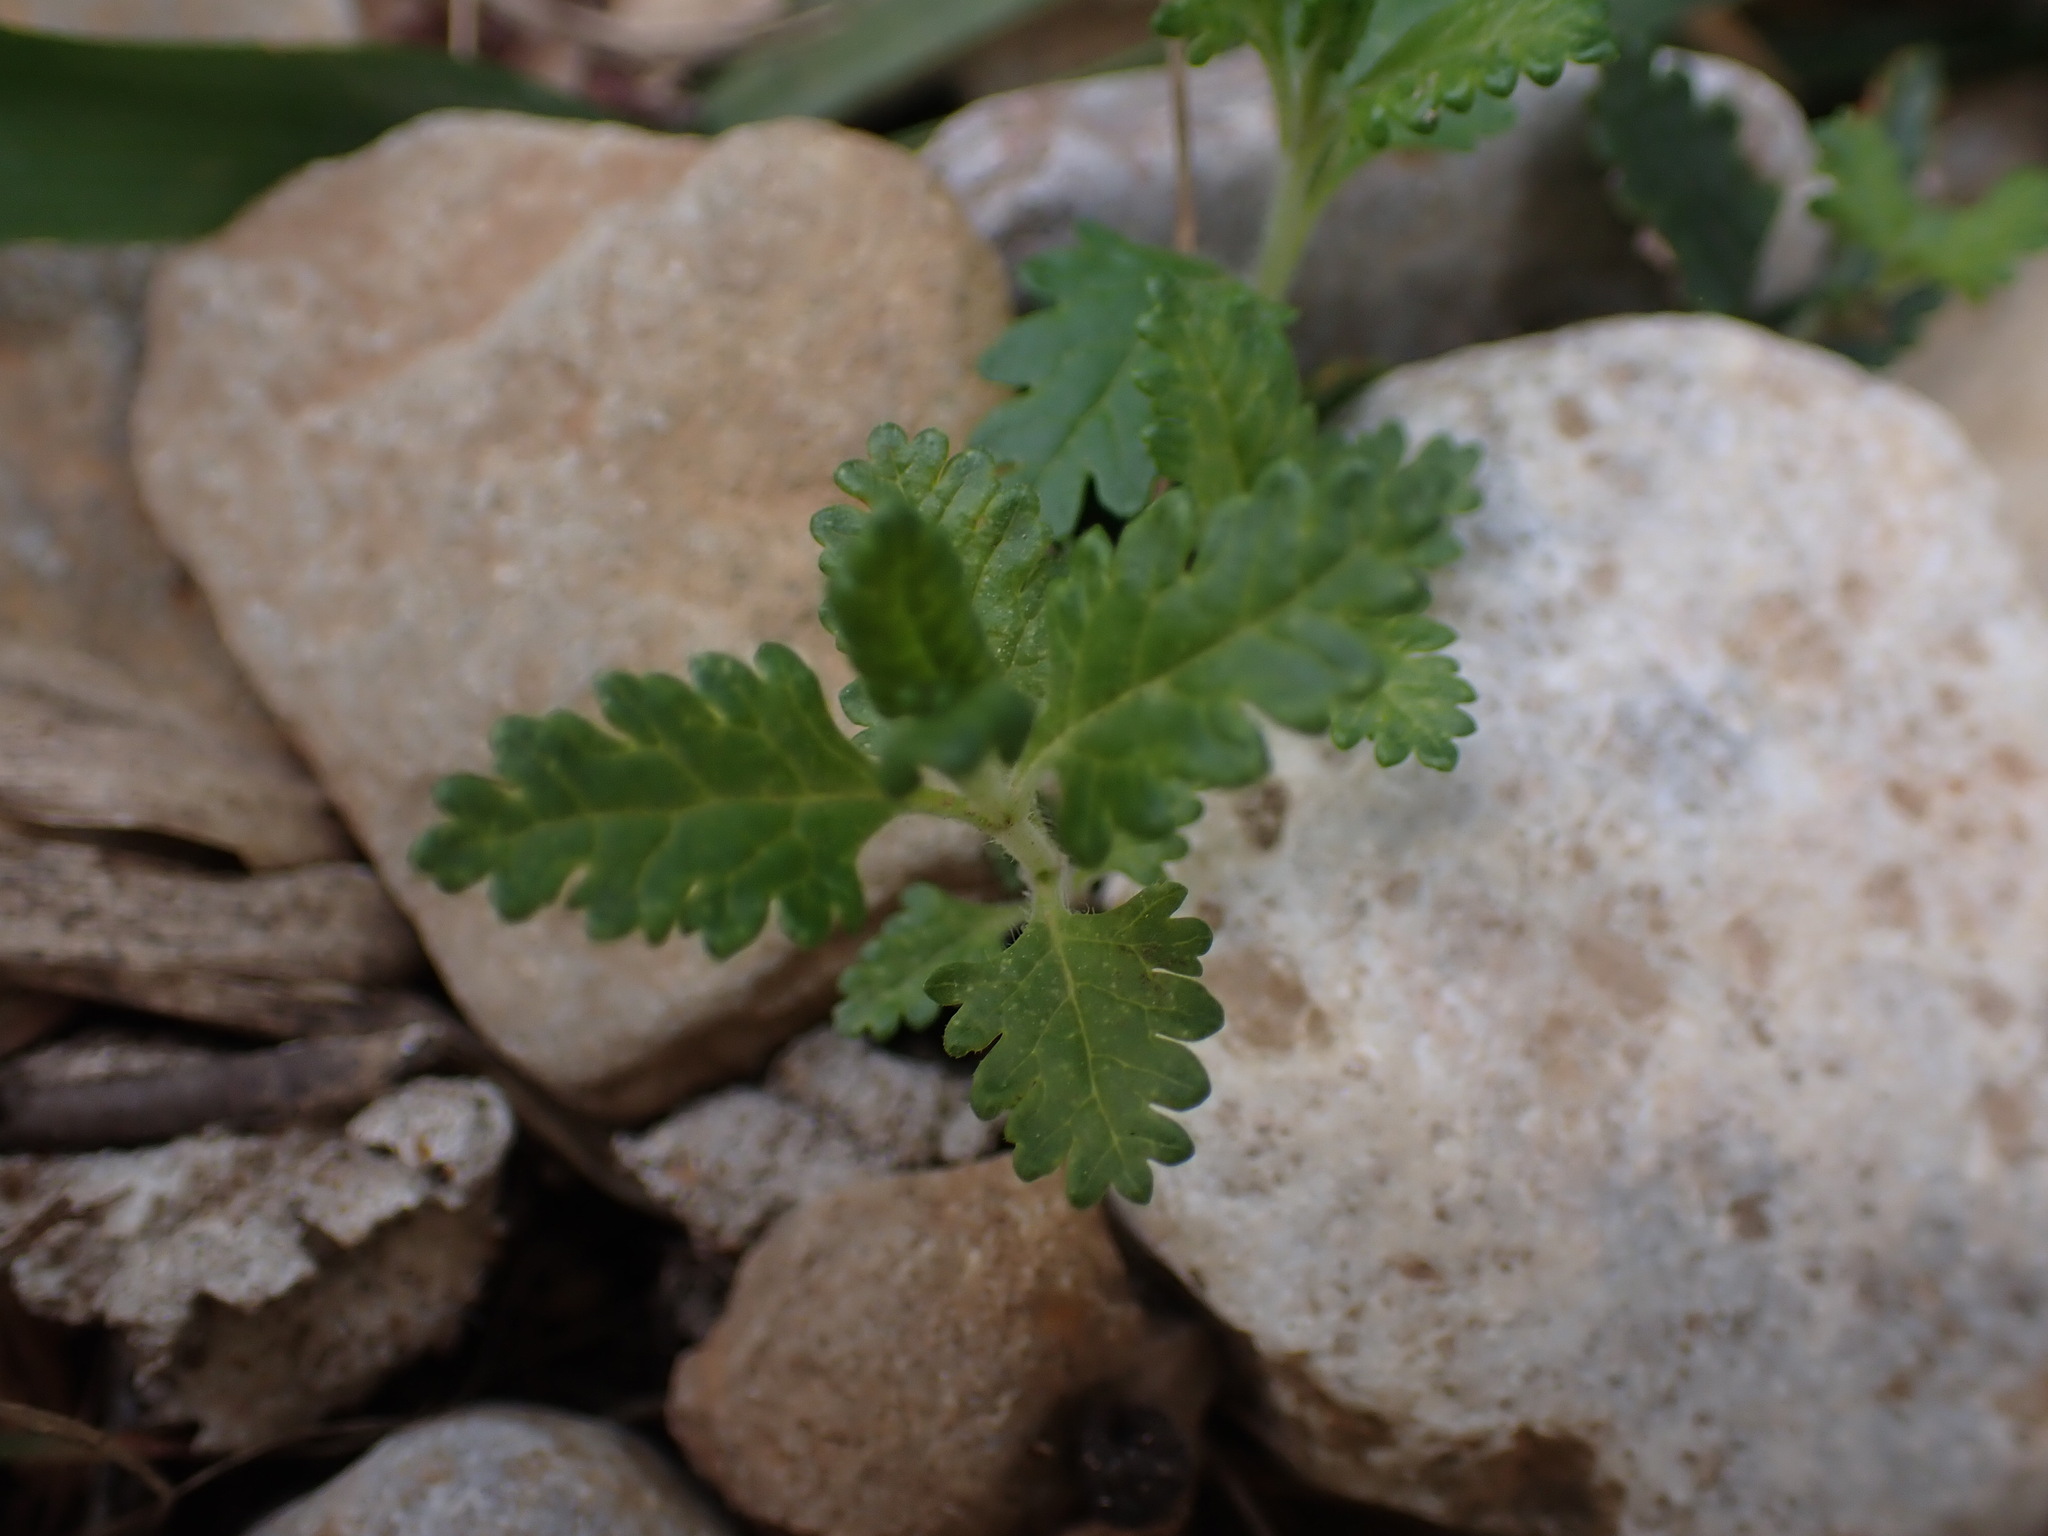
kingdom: Plantae
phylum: Tracheophyta
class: Magnoliopsida
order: Lamiales
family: Lamiaceae
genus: Teucrium
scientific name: Teucrium chamaedrys
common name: Wall germander
